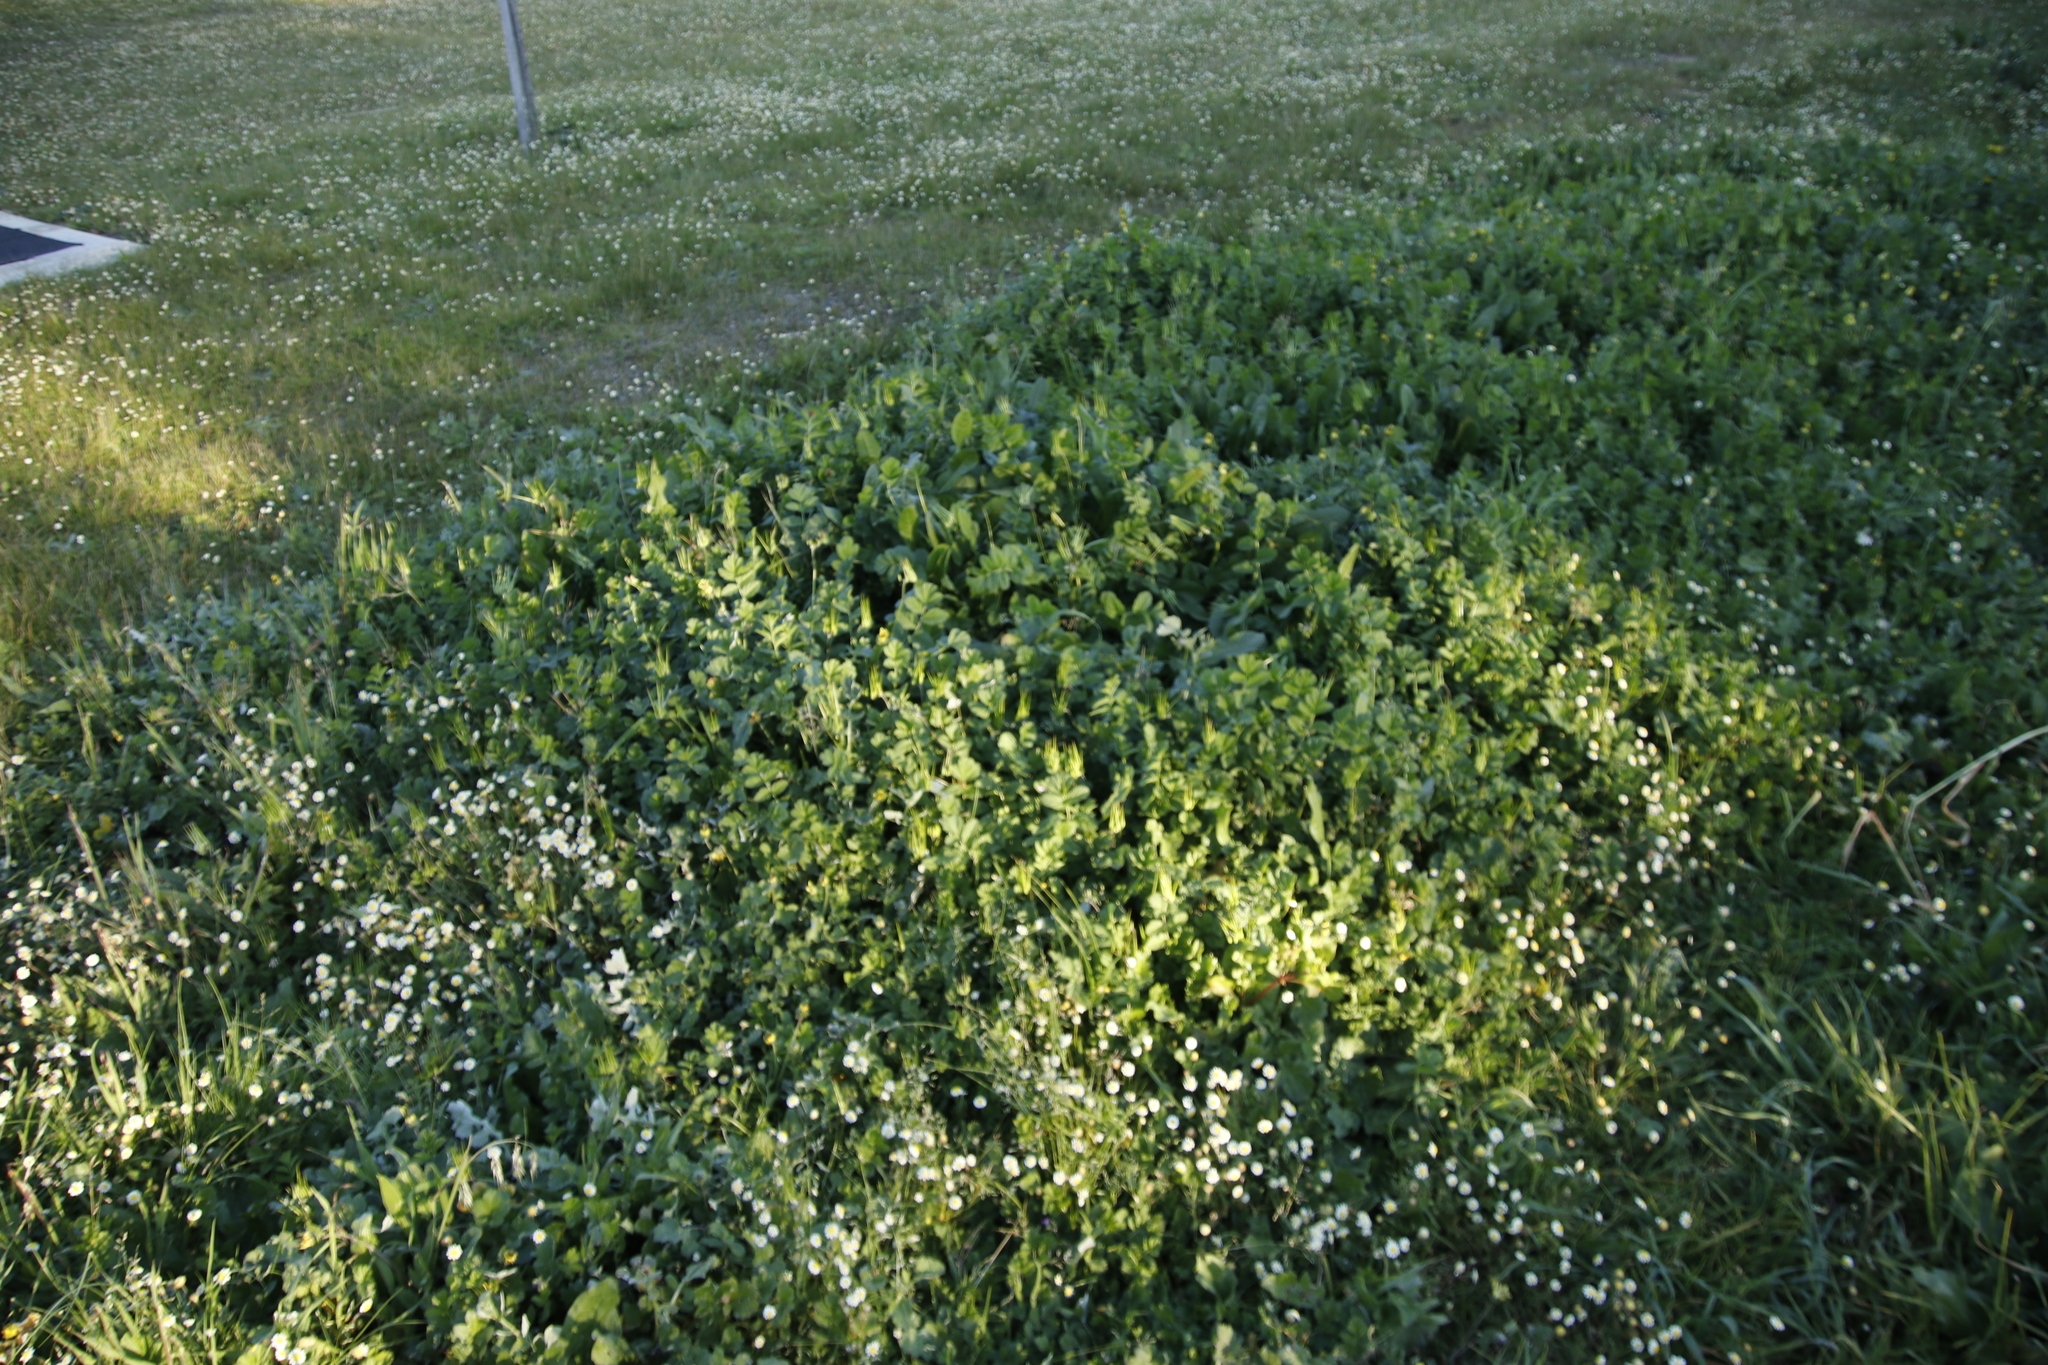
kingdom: Plantae
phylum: Tracheophyta
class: Magnoliopsida
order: Asterales
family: Asteraceae
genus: Arctotheca
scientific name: Arctotheca calendula
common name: Capeweed
